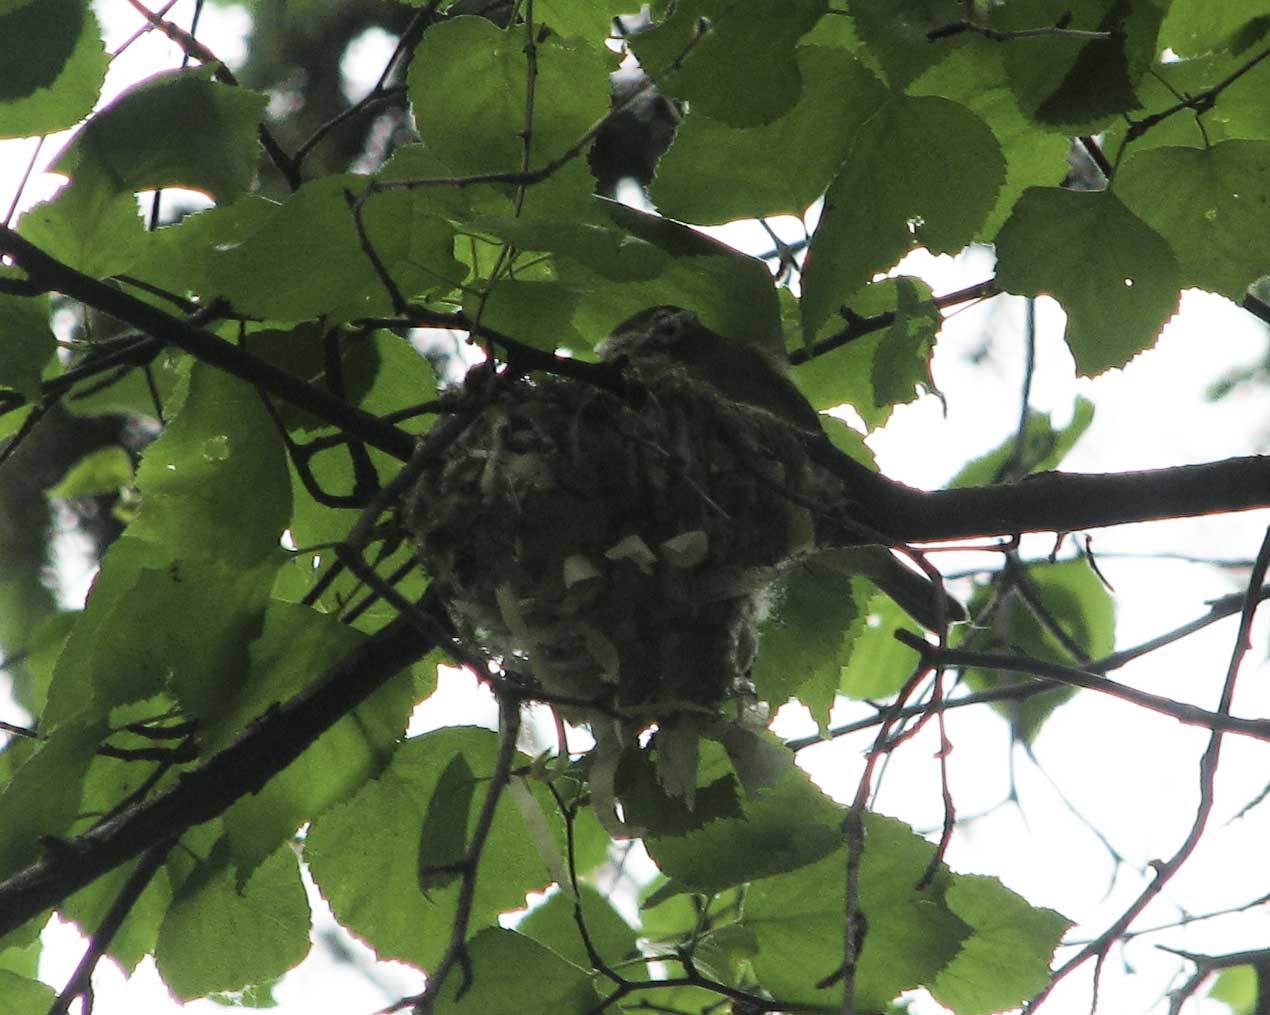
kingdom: Animalia
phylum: Chordata
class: Aves
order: Passeriformes
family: Vireonidae
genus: Vireo
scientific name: Vireo solitarius
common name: Blue-headed vireo
